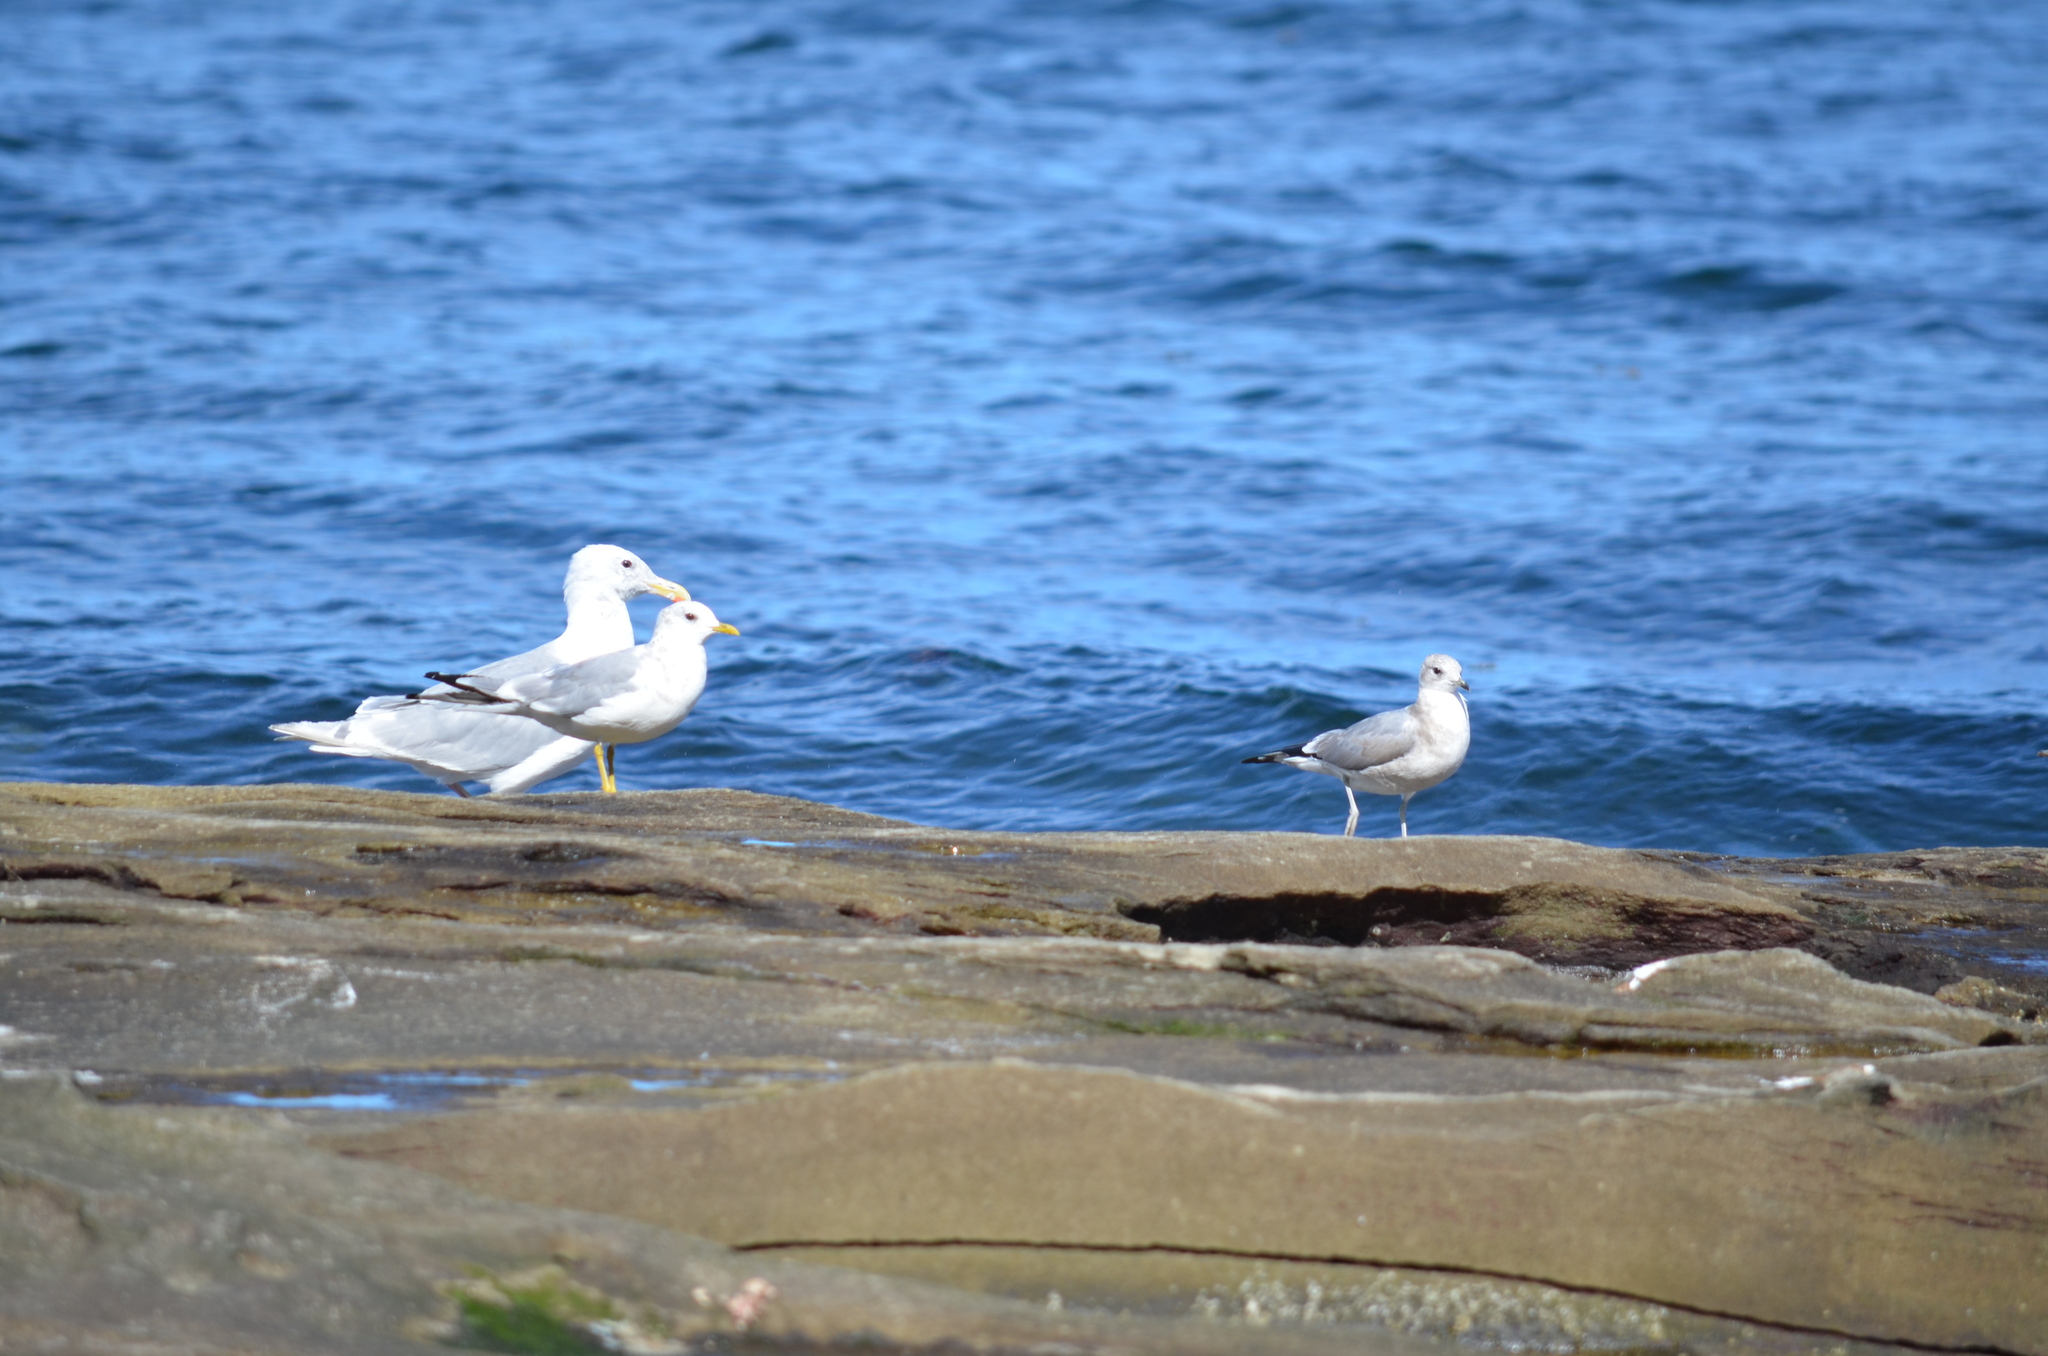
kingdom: Animalia
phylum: Chordata
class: Aves
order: Charadriiformes
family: Laridae
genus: Larus
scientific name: Larus brachyrhynchus
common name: Short-billed gull
